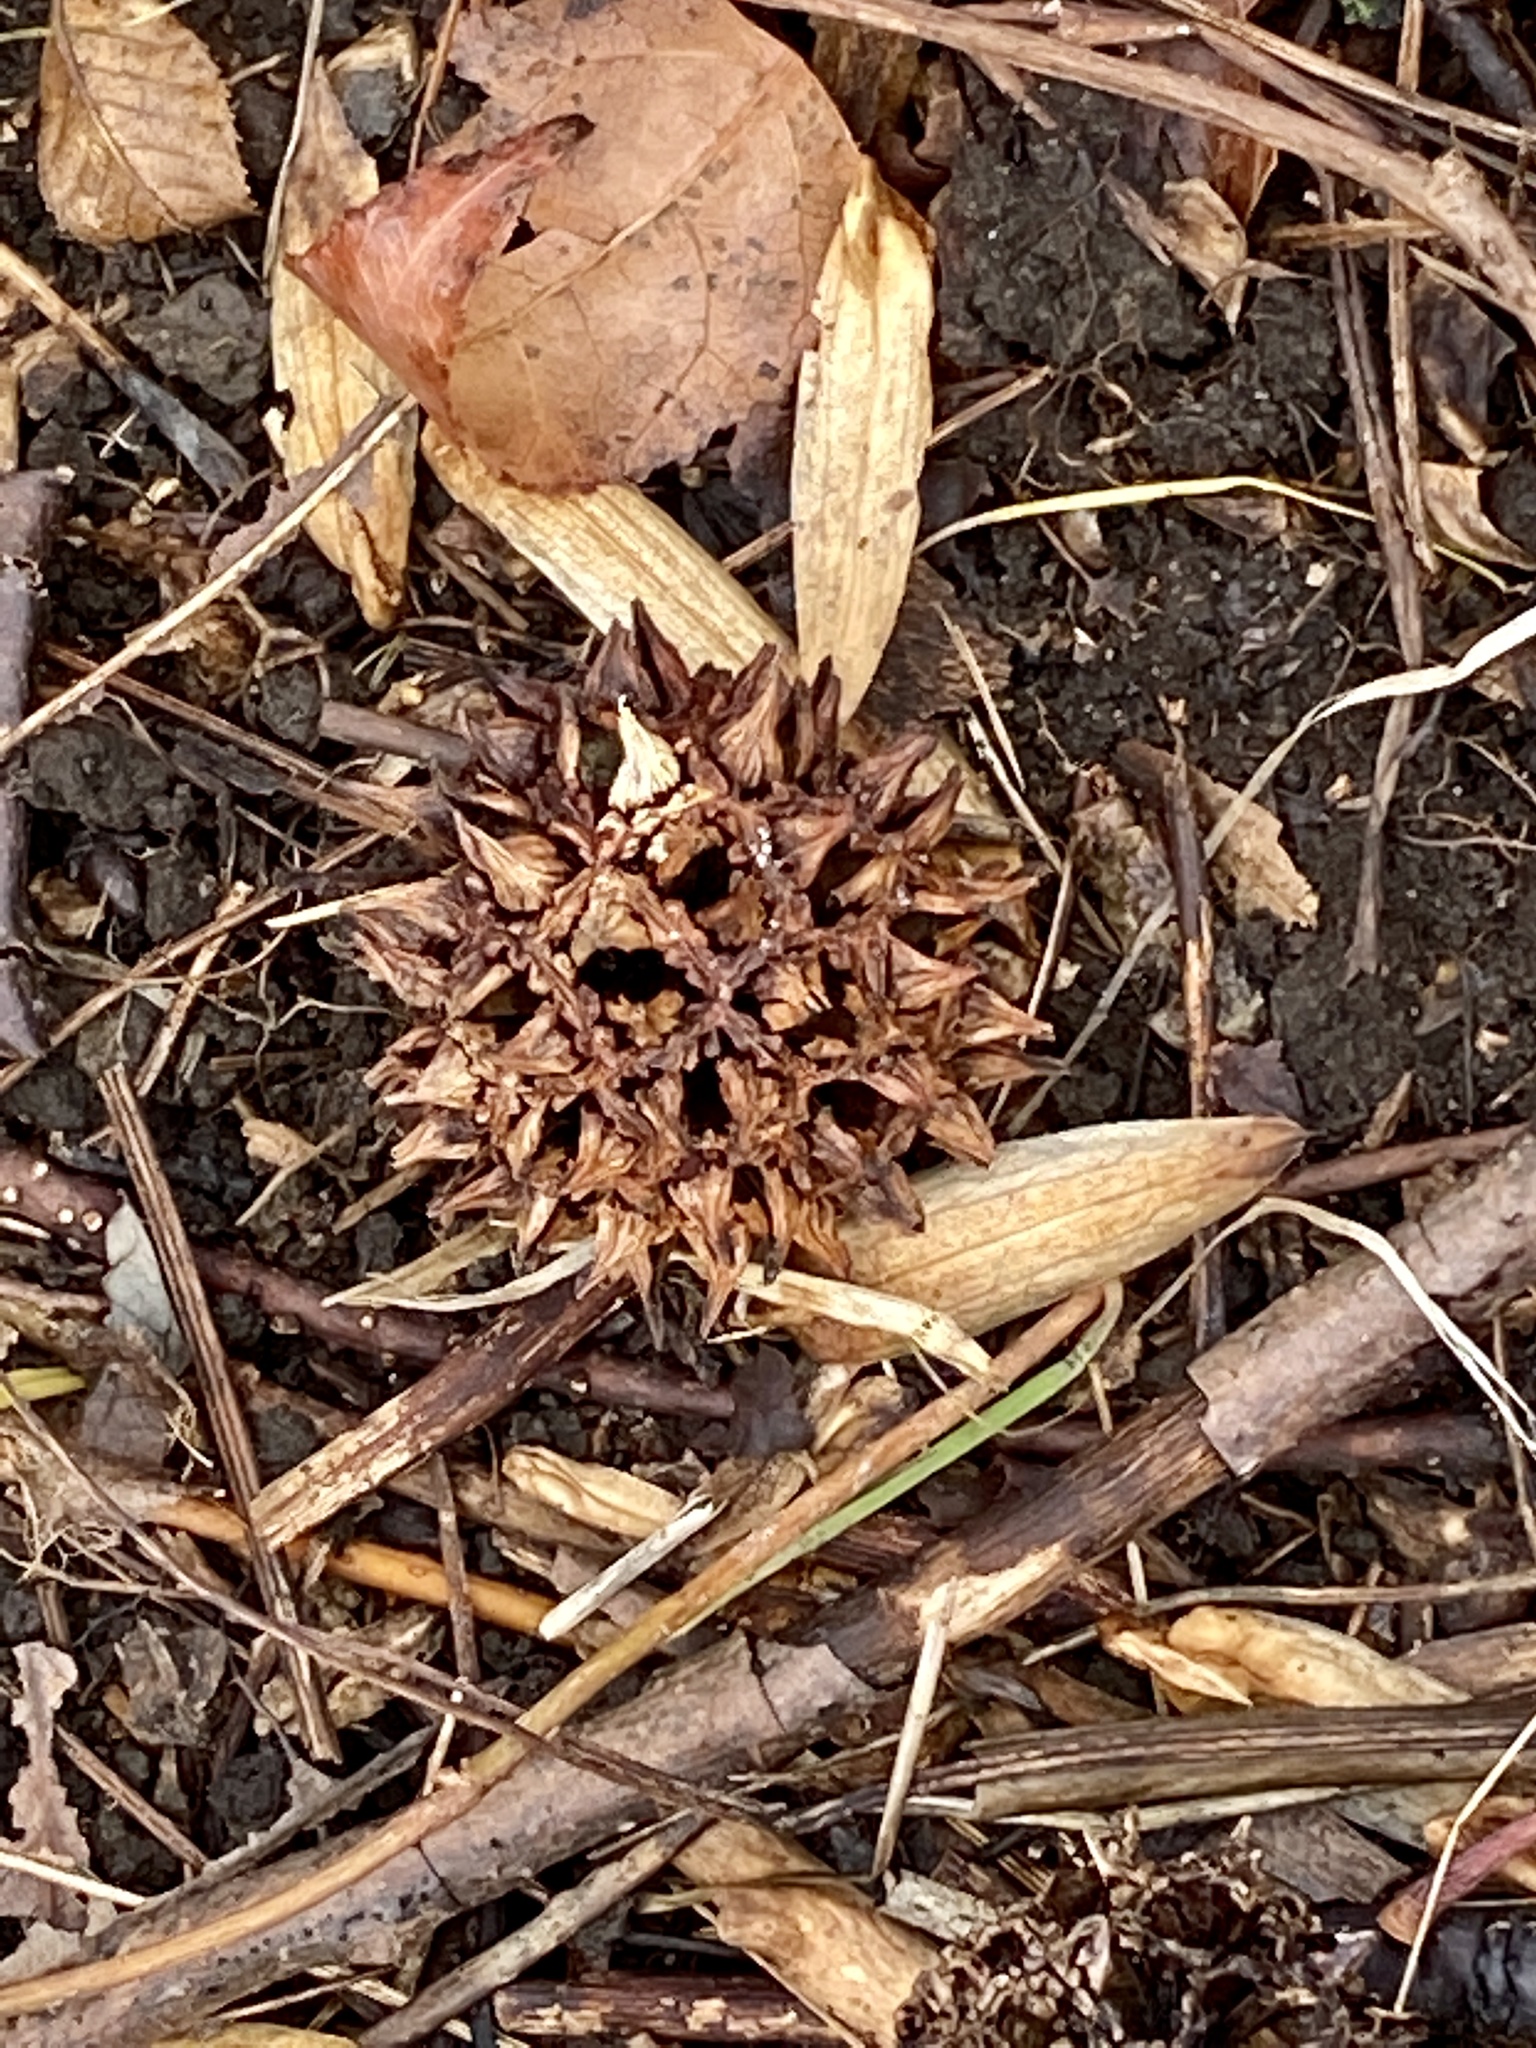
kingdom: Plantae
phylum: Tracheophyta
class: Magnoliopsida
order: Saxifragales
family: Altingiaceae
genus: Liquidambar
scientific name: Liquidambar styraciflua
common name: Sweet gum
